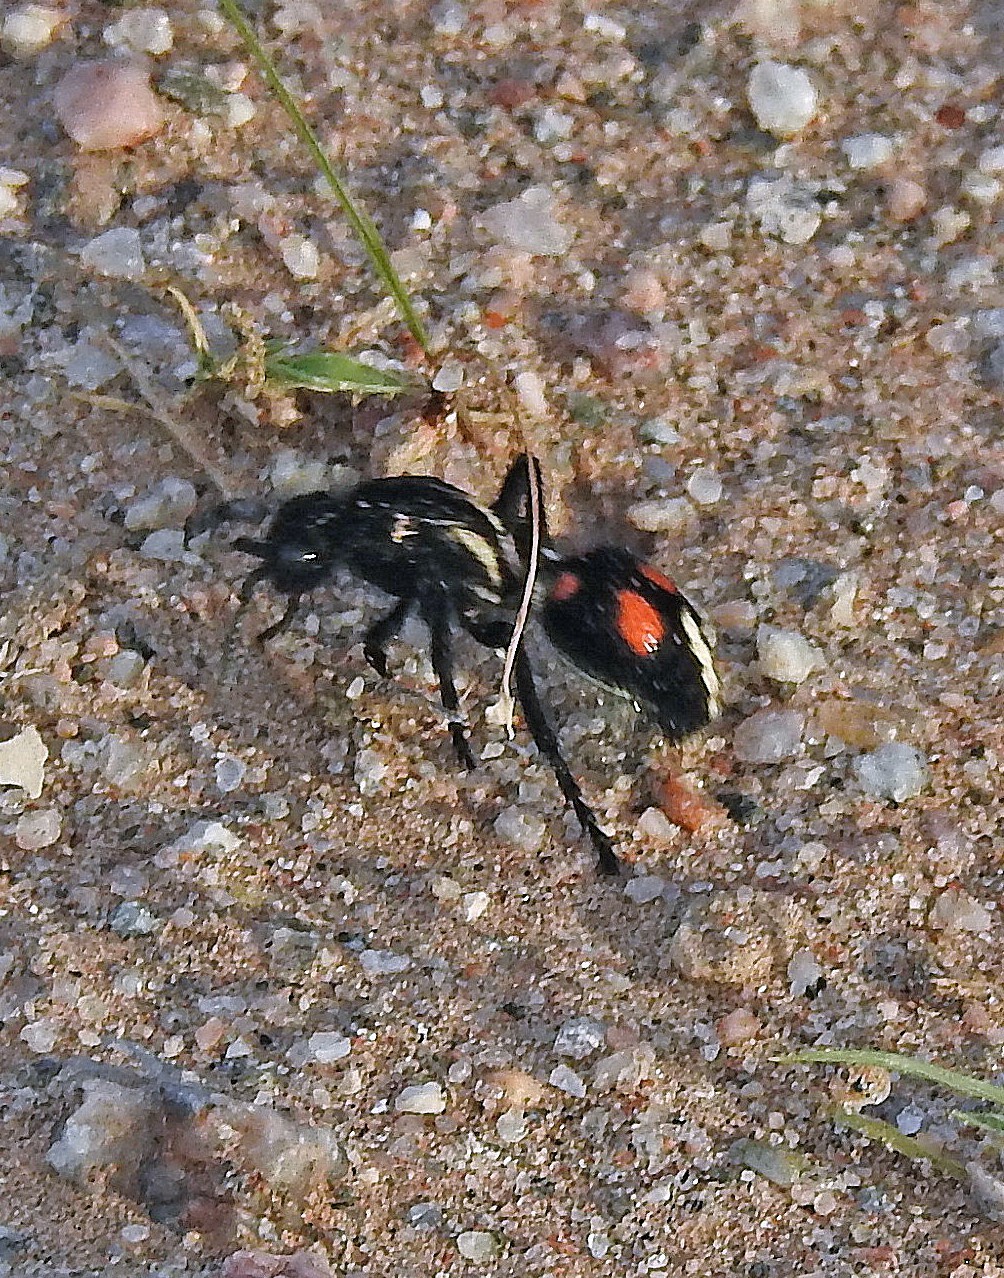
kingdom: Animalia
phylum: Arthropoda
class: Insecta
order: Hymenoptera
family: Mutillidae
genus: Traumatomutilla
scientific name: Traumatomutilla
